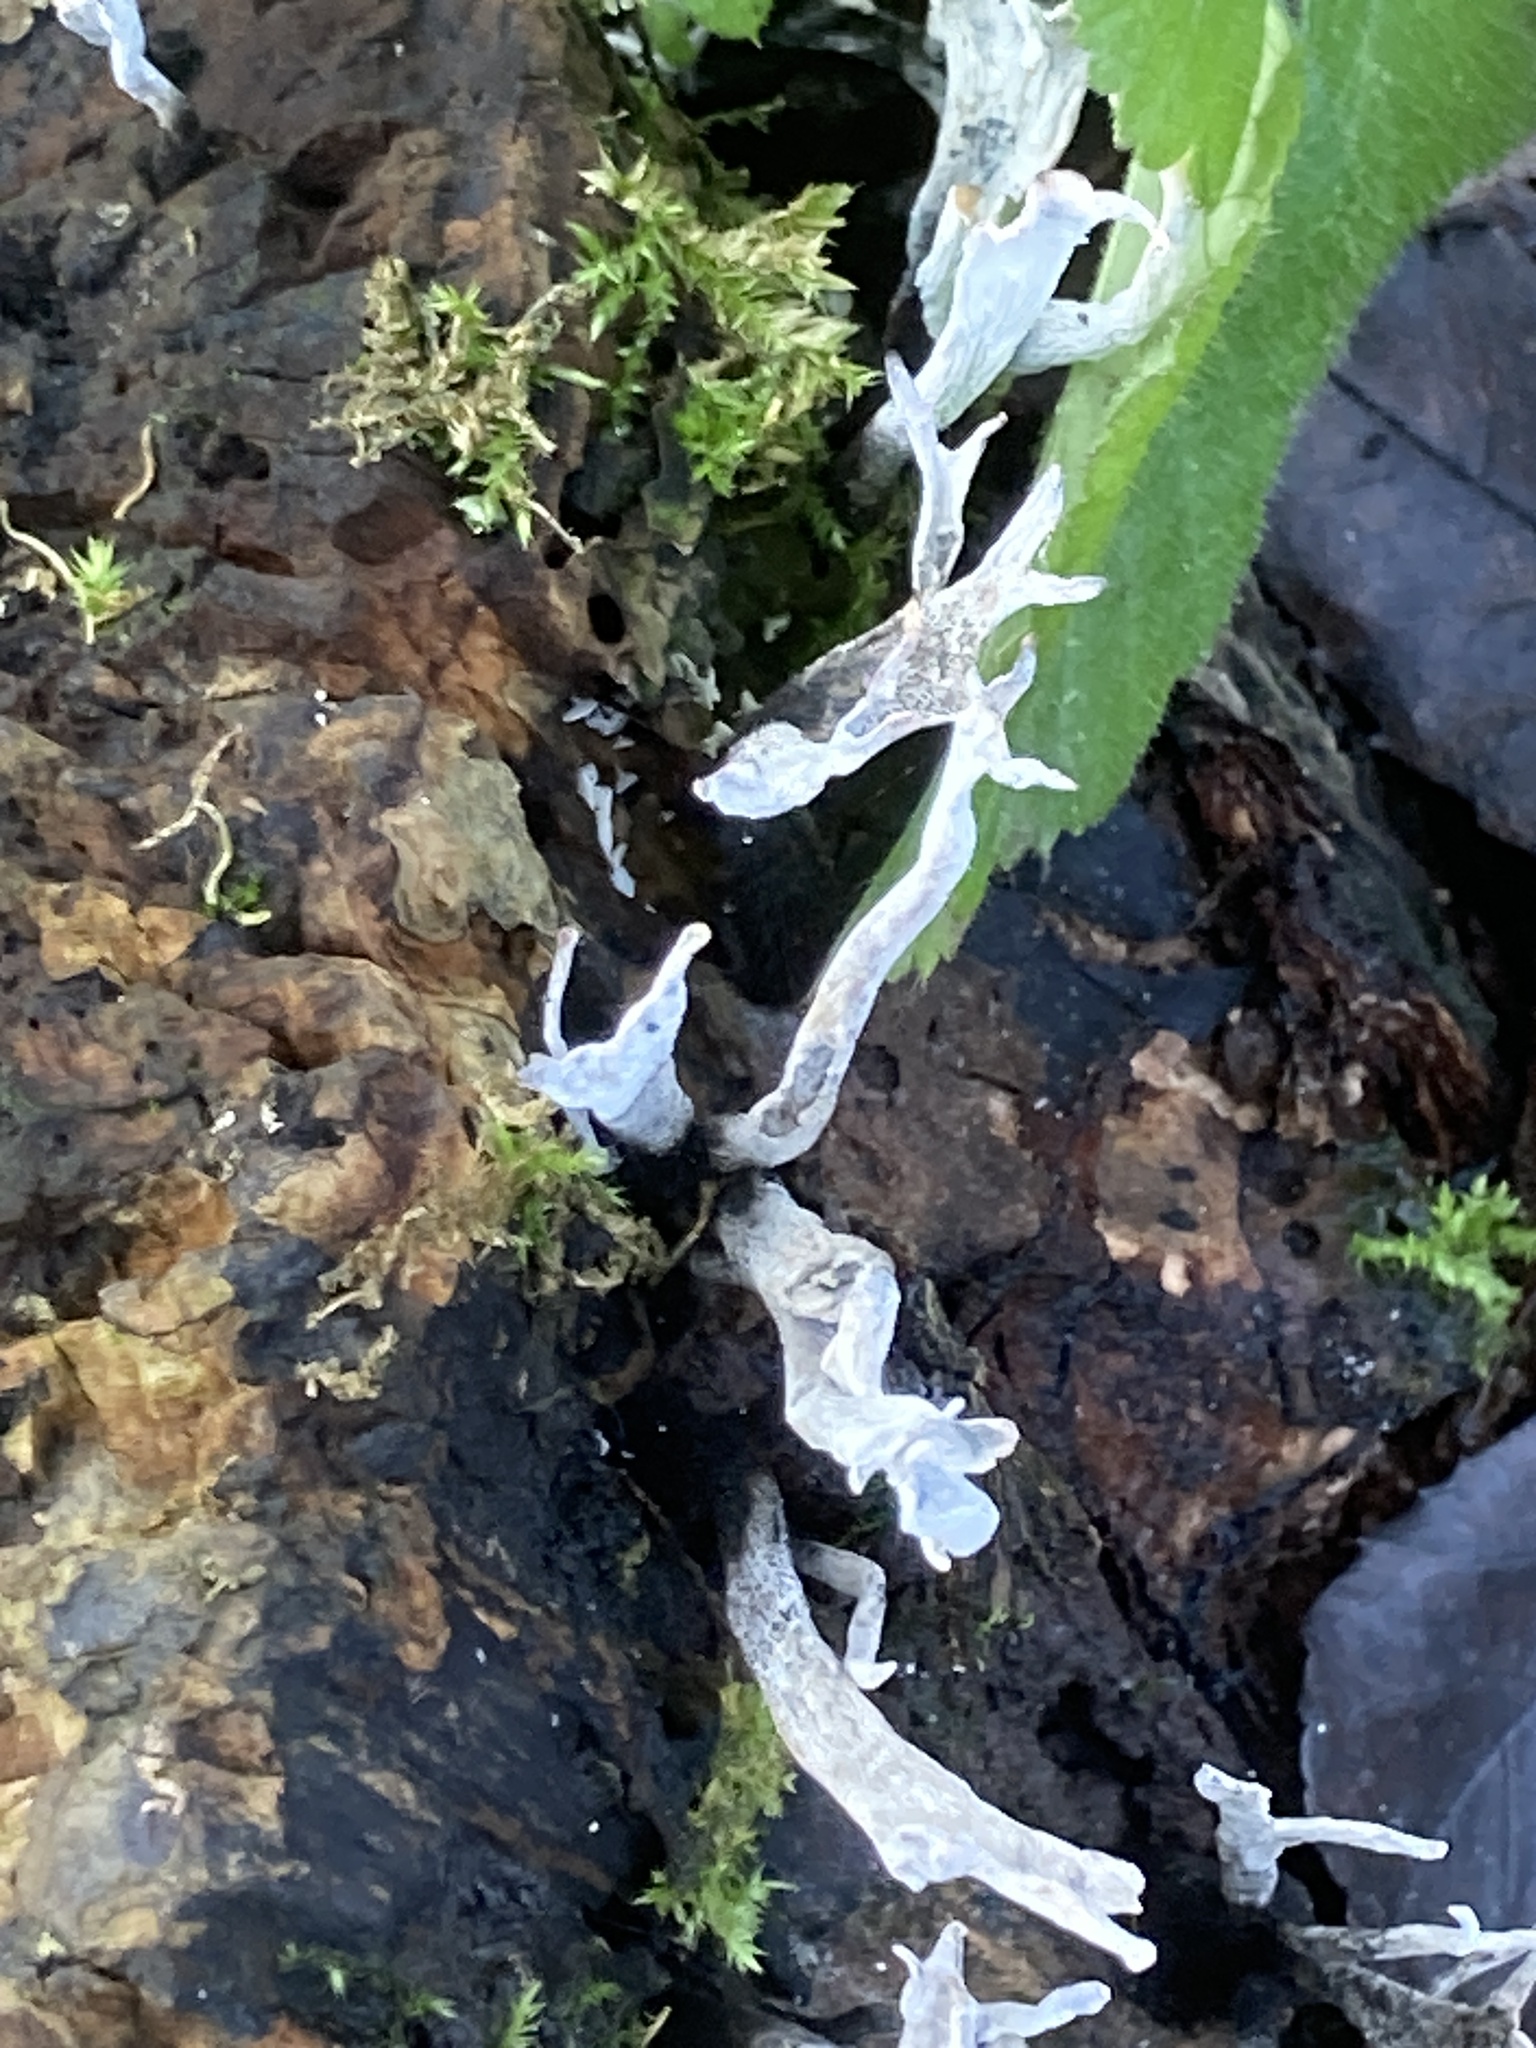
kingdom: Fungi
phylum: Ascomycota
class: Sordariomycetes
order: Xylariales
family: Xylariaceae
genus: Xylaria
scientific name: Xylaria hypoxylon
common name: Candle-snuff fungus
